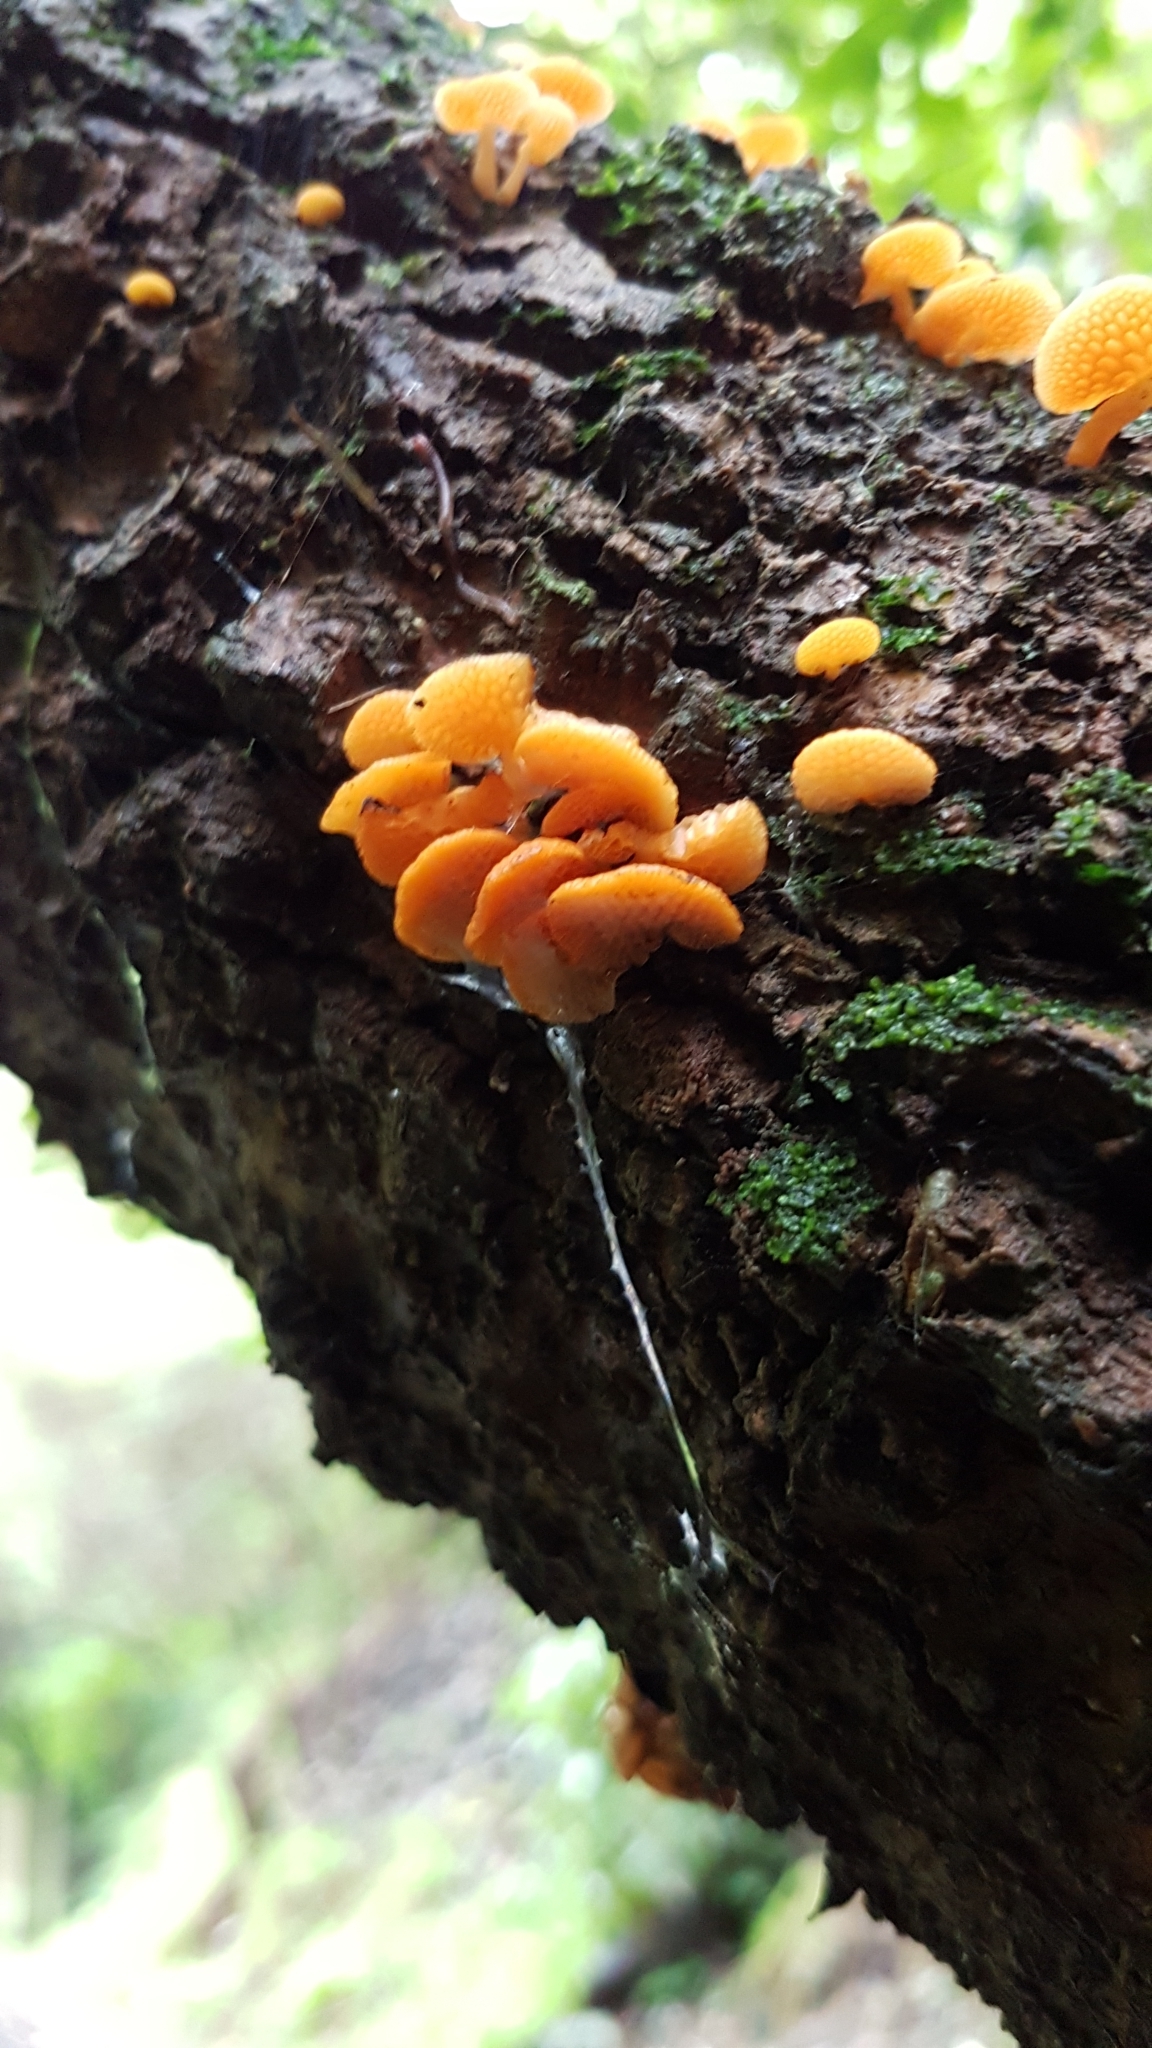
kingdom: Fungi
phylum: Basidiomycota
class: Agaricomycetes
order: Agaricales
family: Mycenaceae
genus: Favolaschia
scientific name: Favolaschia claudopus
